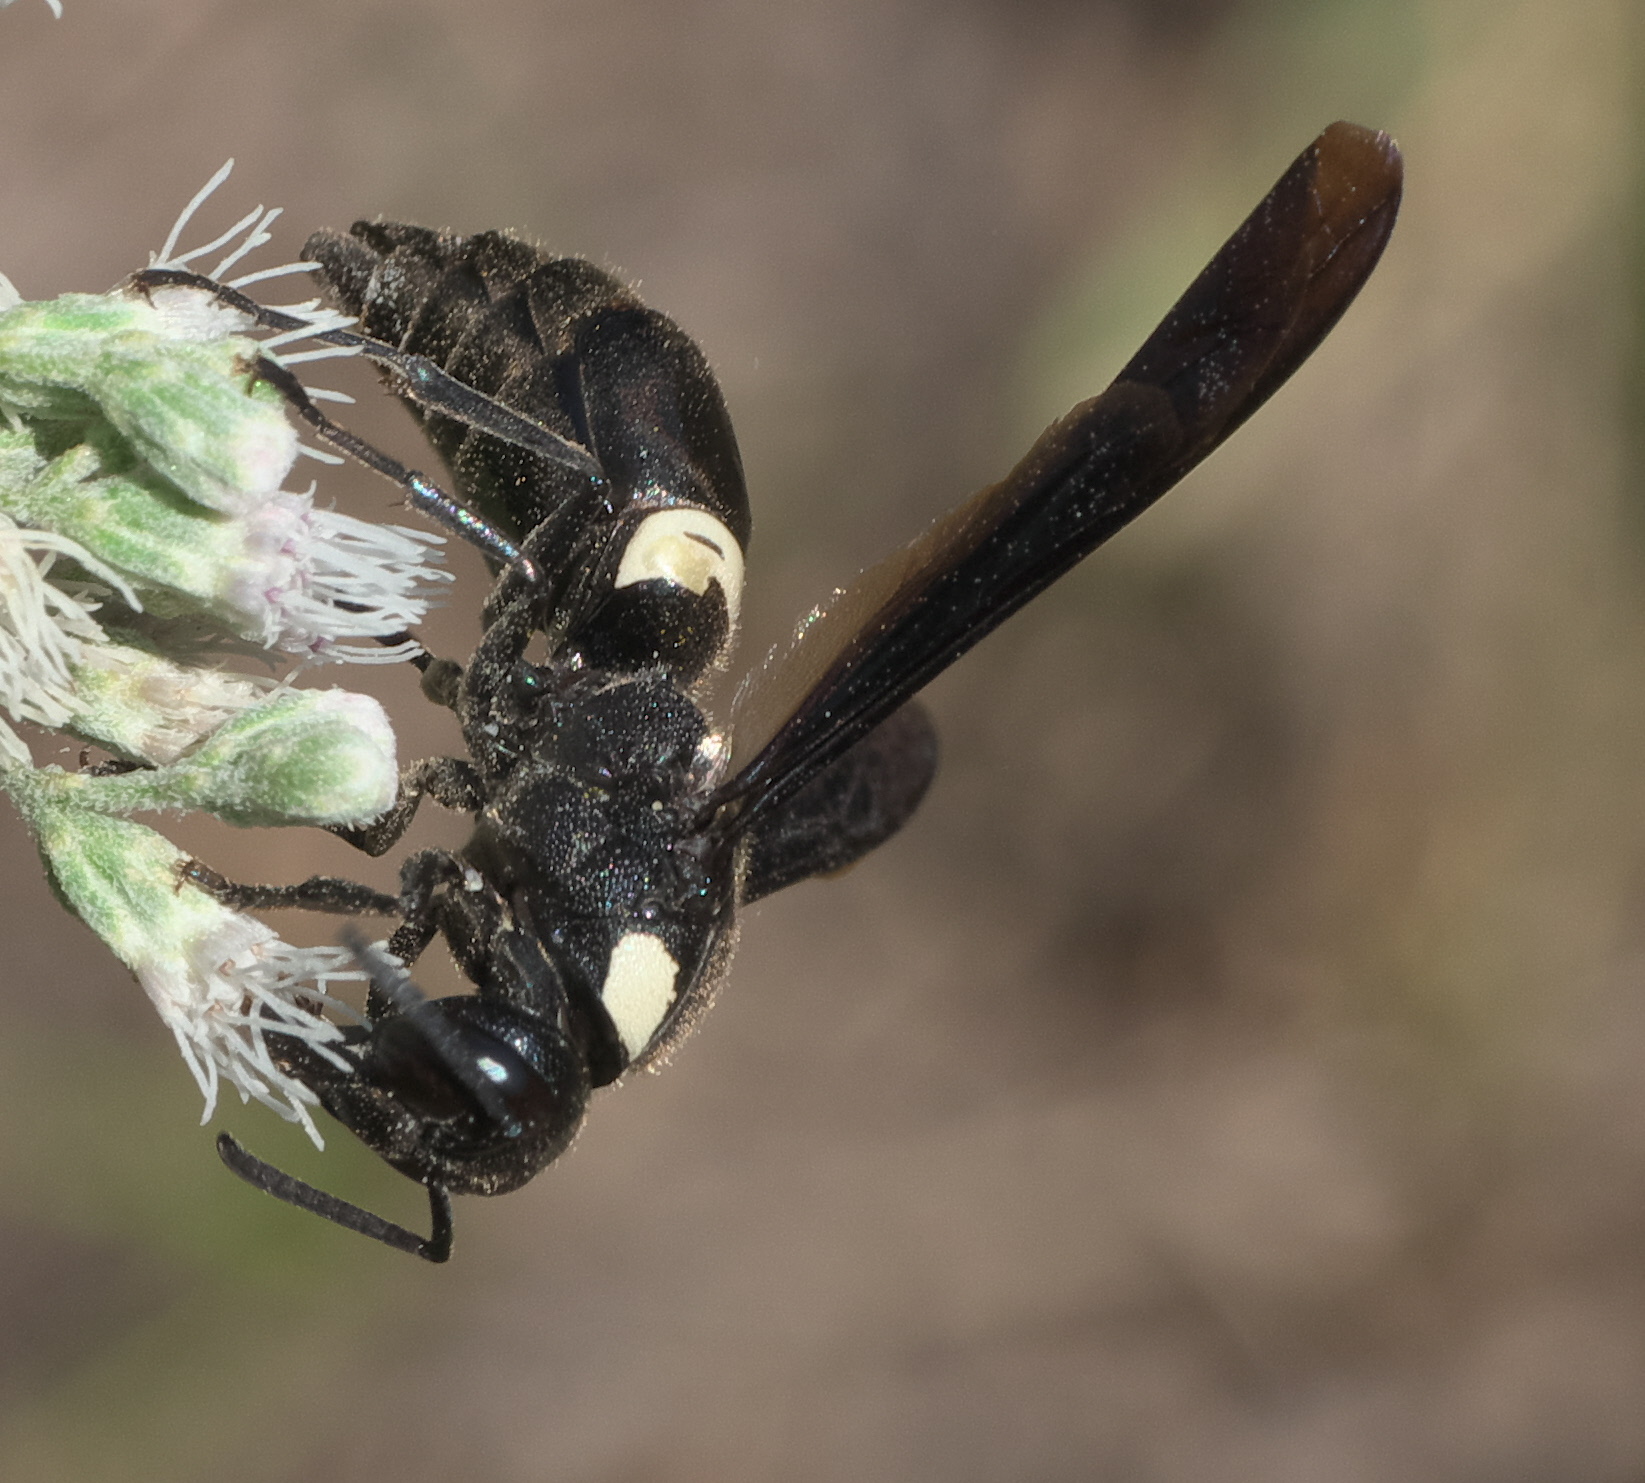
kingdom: Animalia
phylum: Arthropoda
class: Insecta
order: Hymenoptera
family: Eumenidae
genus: Monobia
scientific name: Monobia quadridens
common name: Four-toothed mason wasp
